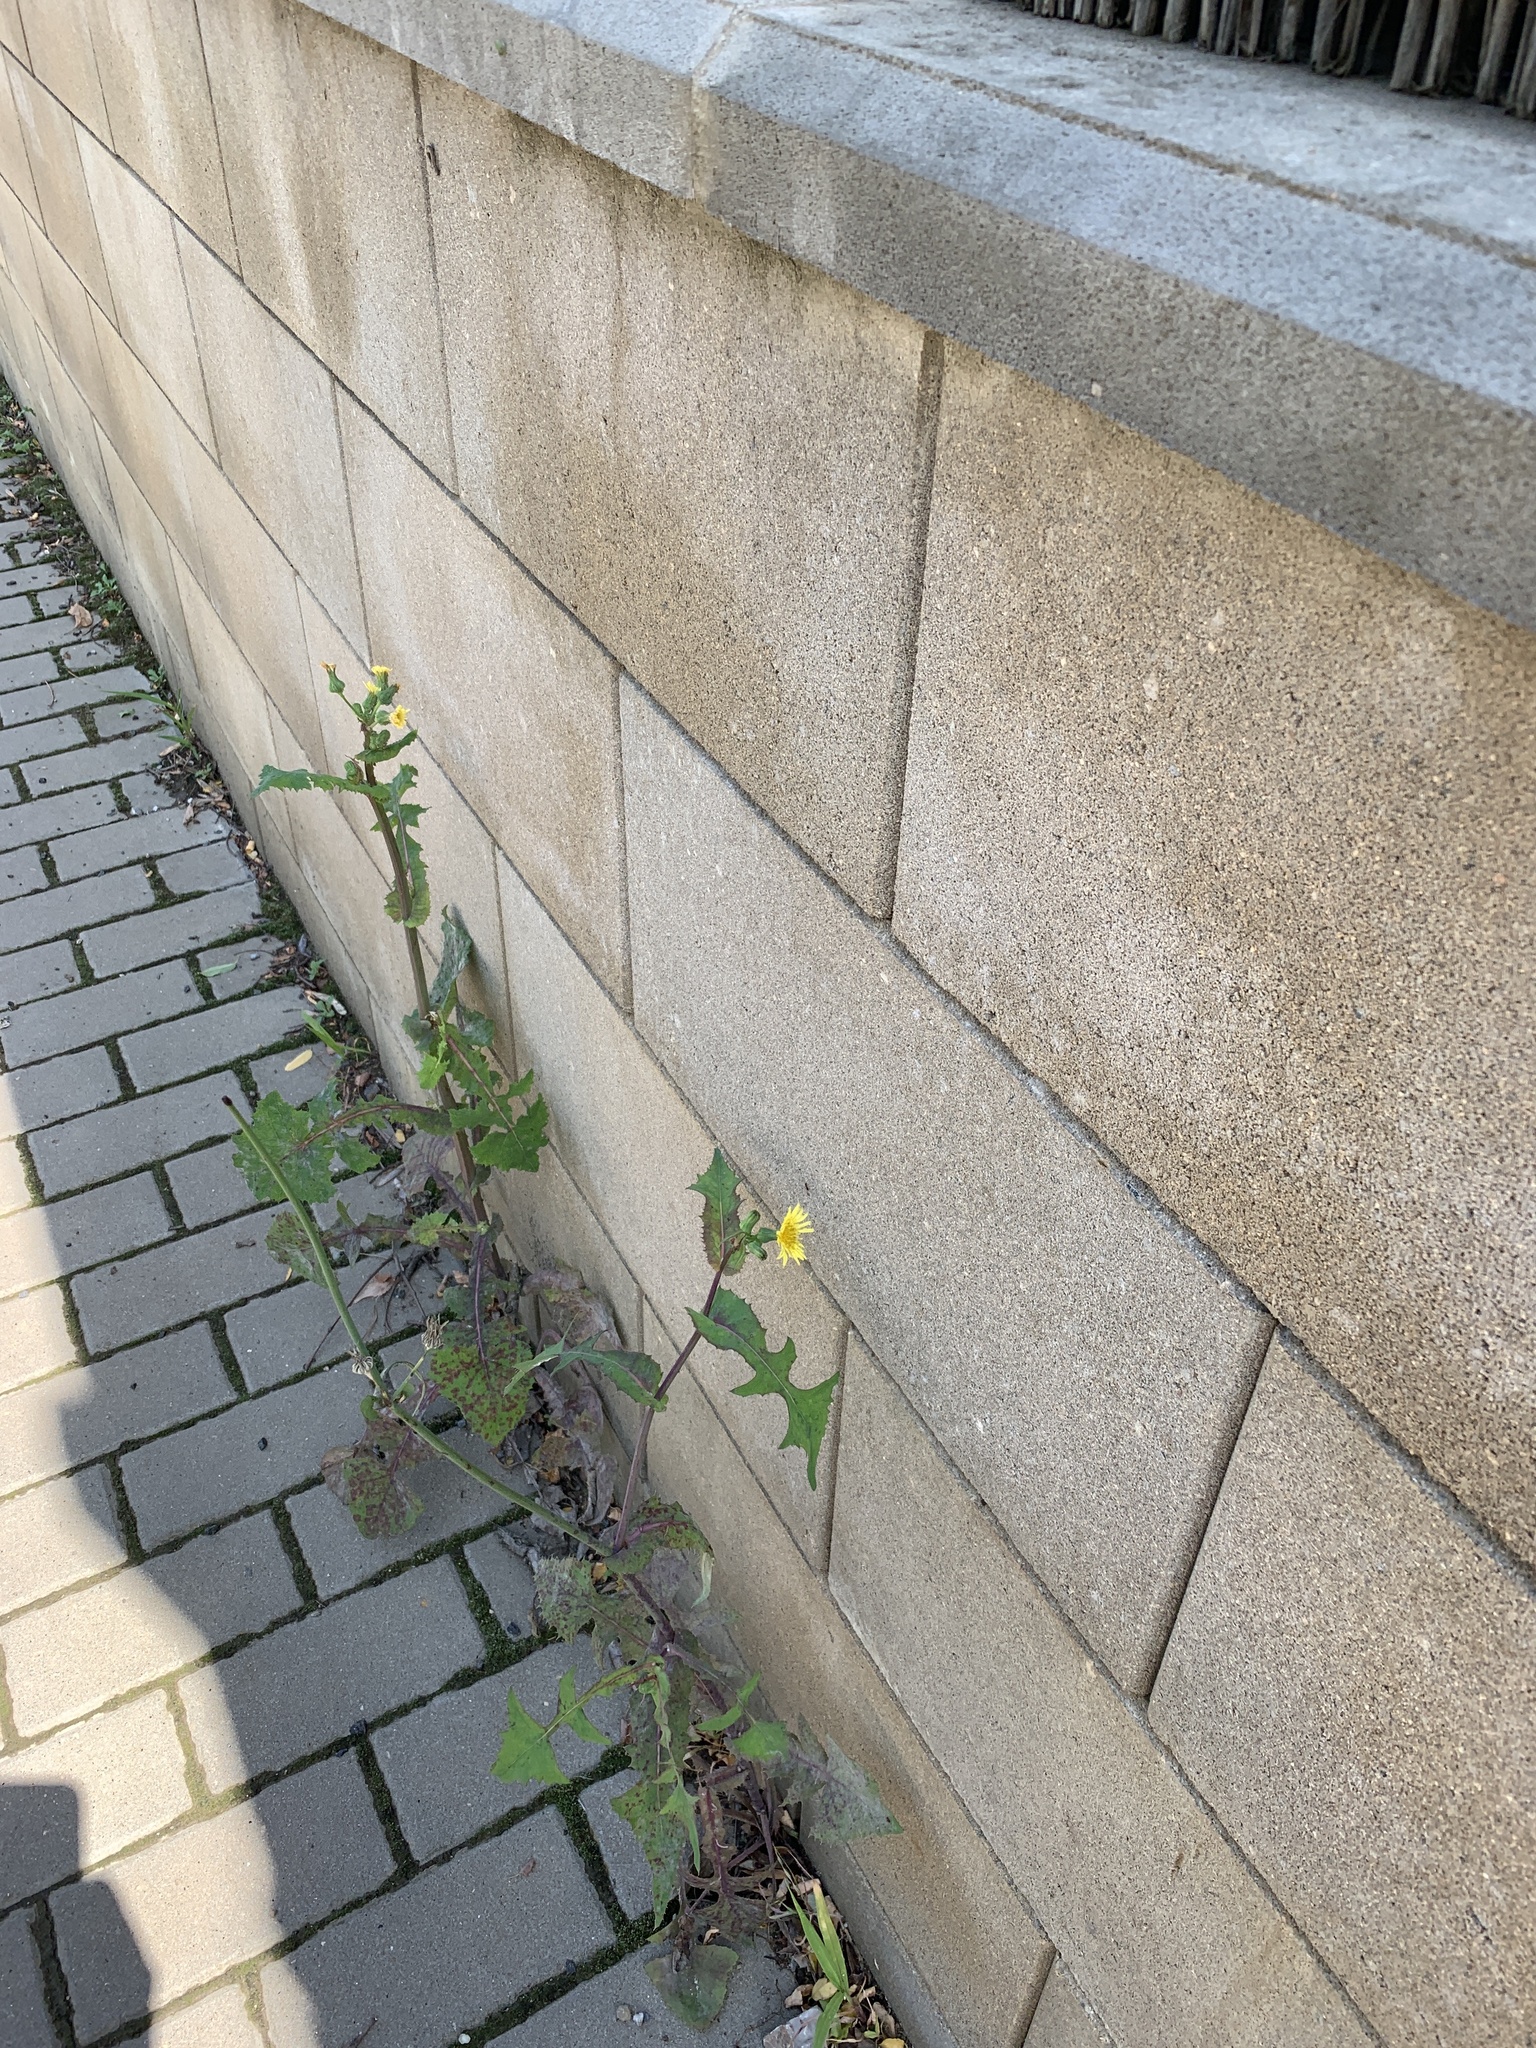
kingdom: Plantae
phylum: Tracheophyta
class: Magnoliopsida
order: Asterales
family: Asteraceae
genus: Sonchus
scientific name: Sonchus oleraceus
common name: Common sowthistle
